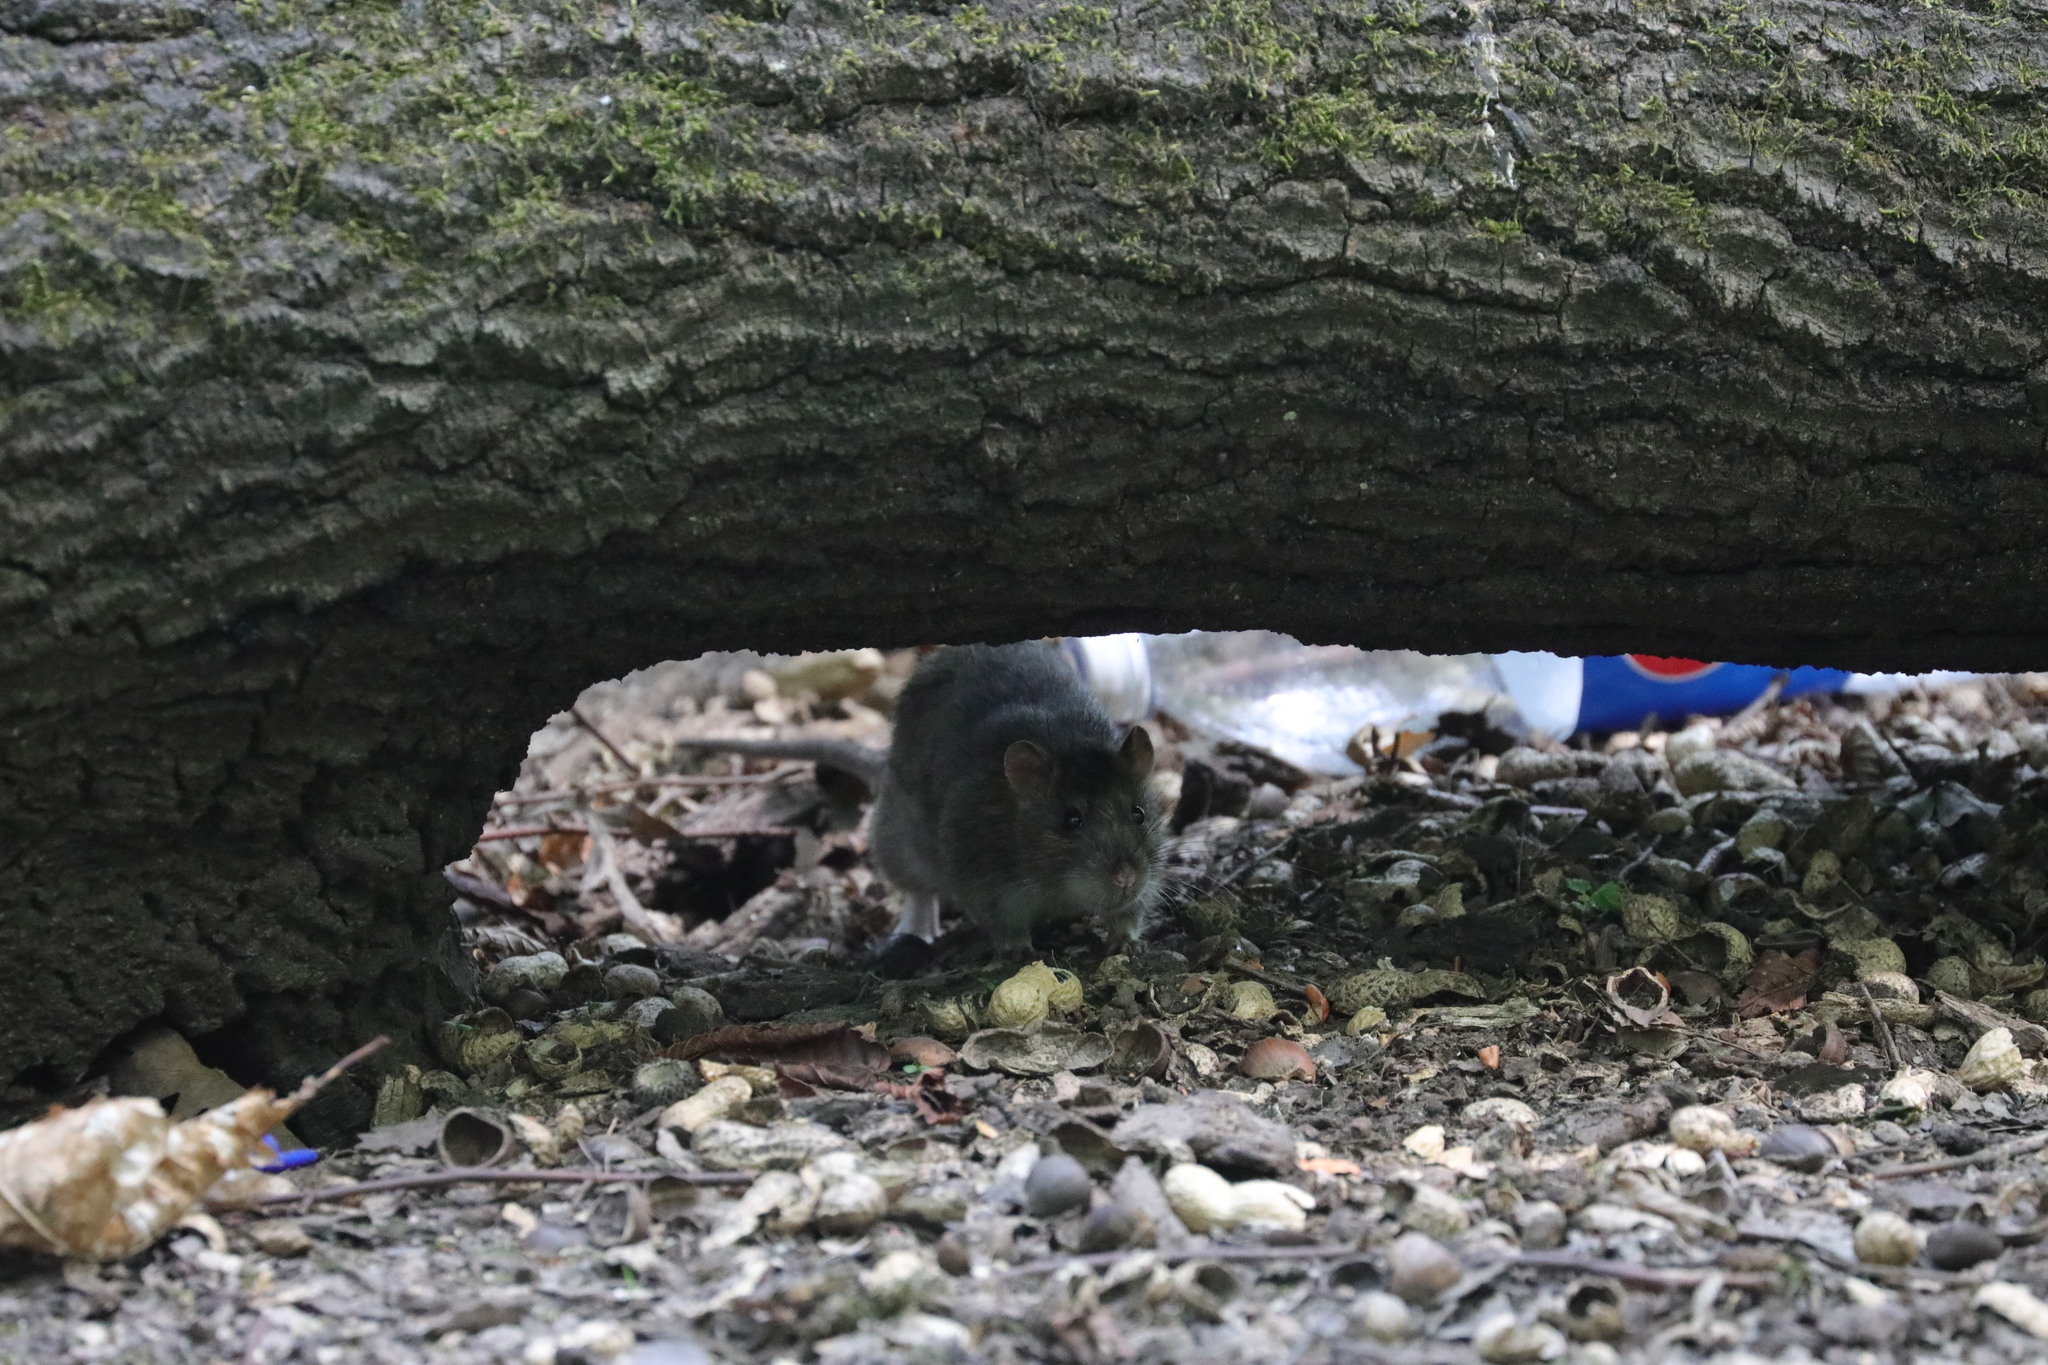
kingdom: Animalia
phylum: Chordata
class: Mammalia
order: Rodentia
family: Muridae
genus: Rattus
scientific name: Rattus norvegicus
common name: Brown rat
